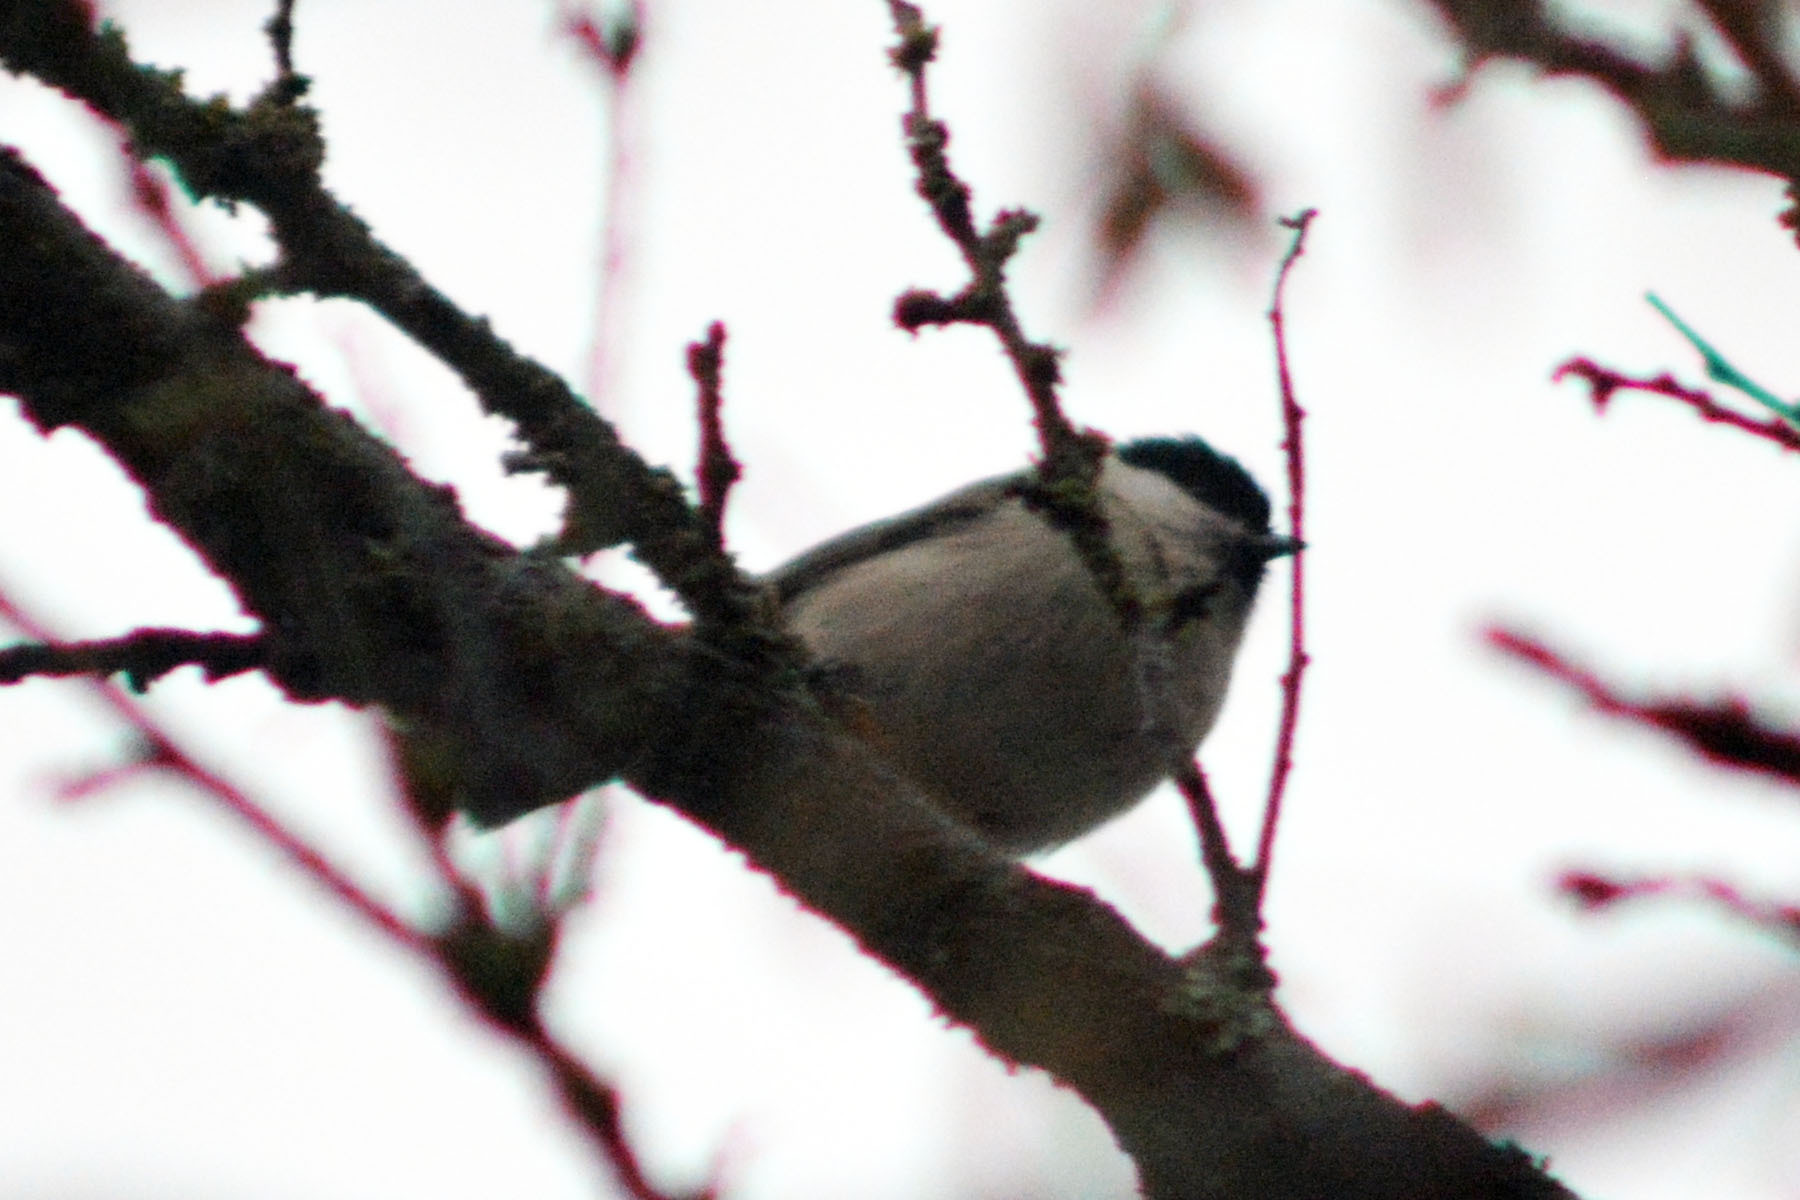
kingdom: Animalia
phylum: Chordata
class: Aves
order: Passeriformes
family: Paridae
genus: Poecile
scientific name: Poecile palustris
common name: Marsh tit
